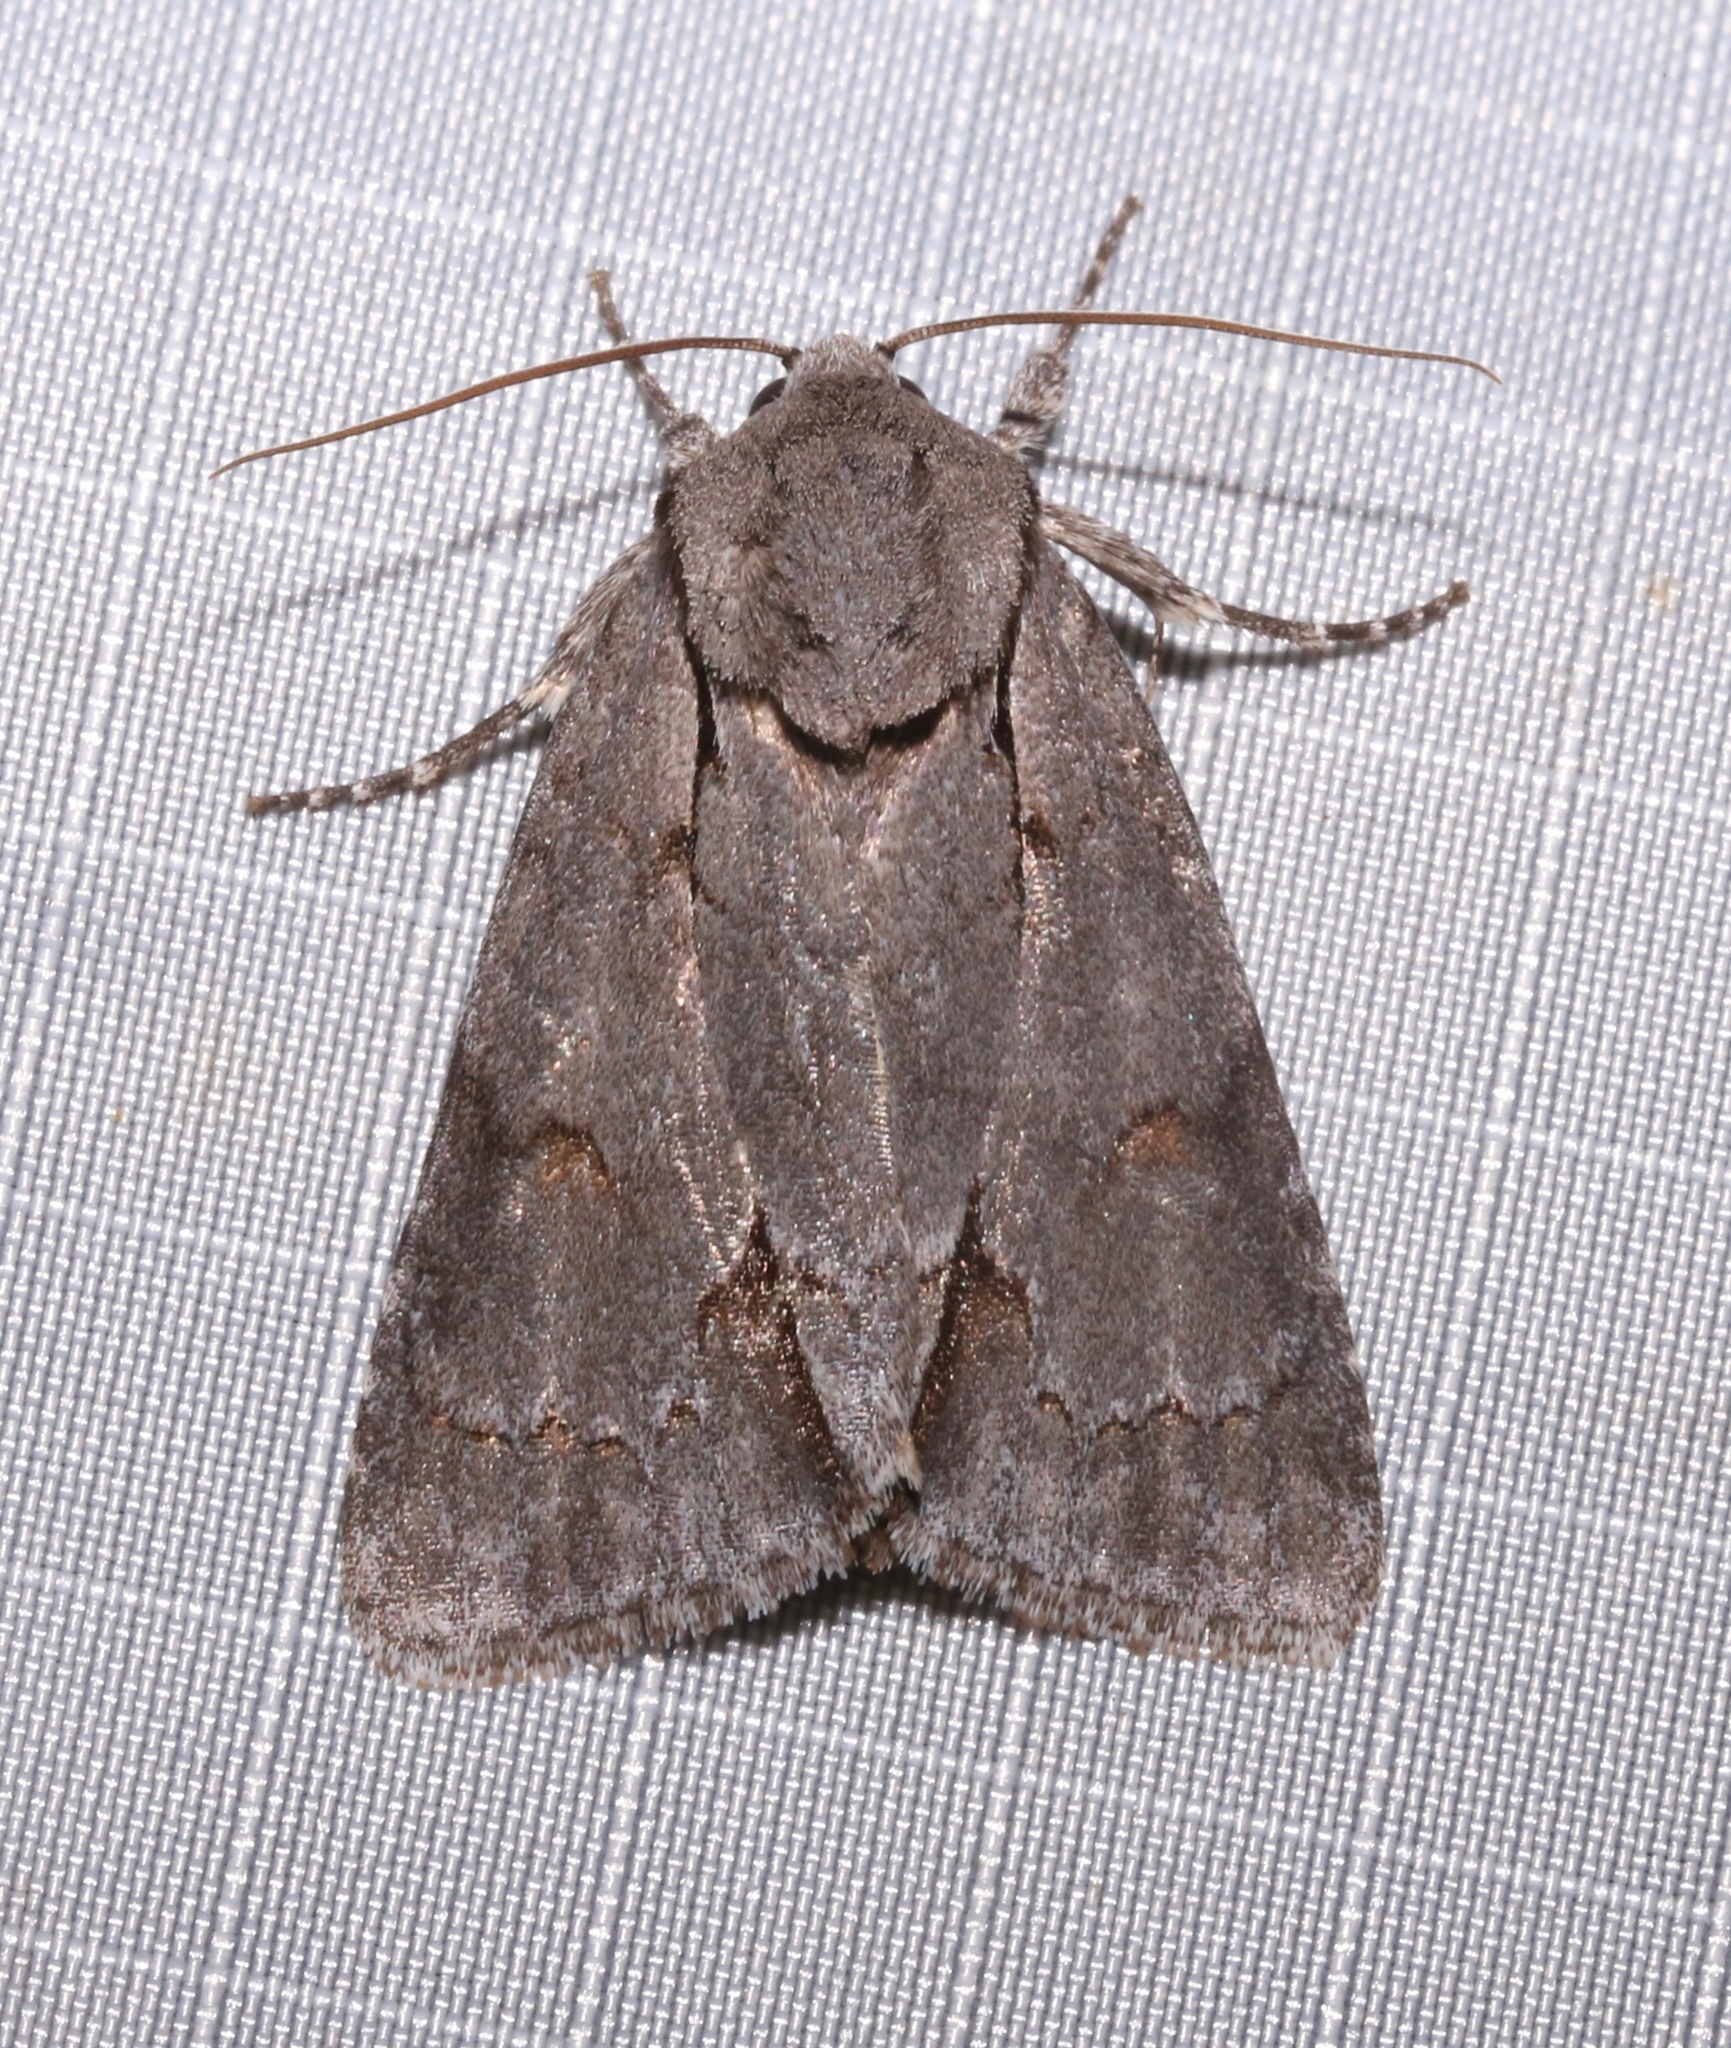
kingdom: Animalia
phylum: Arthropoda
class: Insecta
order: Lepidoptera
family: Noctuidae
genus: Acronicta
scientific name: Acronicta tritona
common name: Triton dagger
